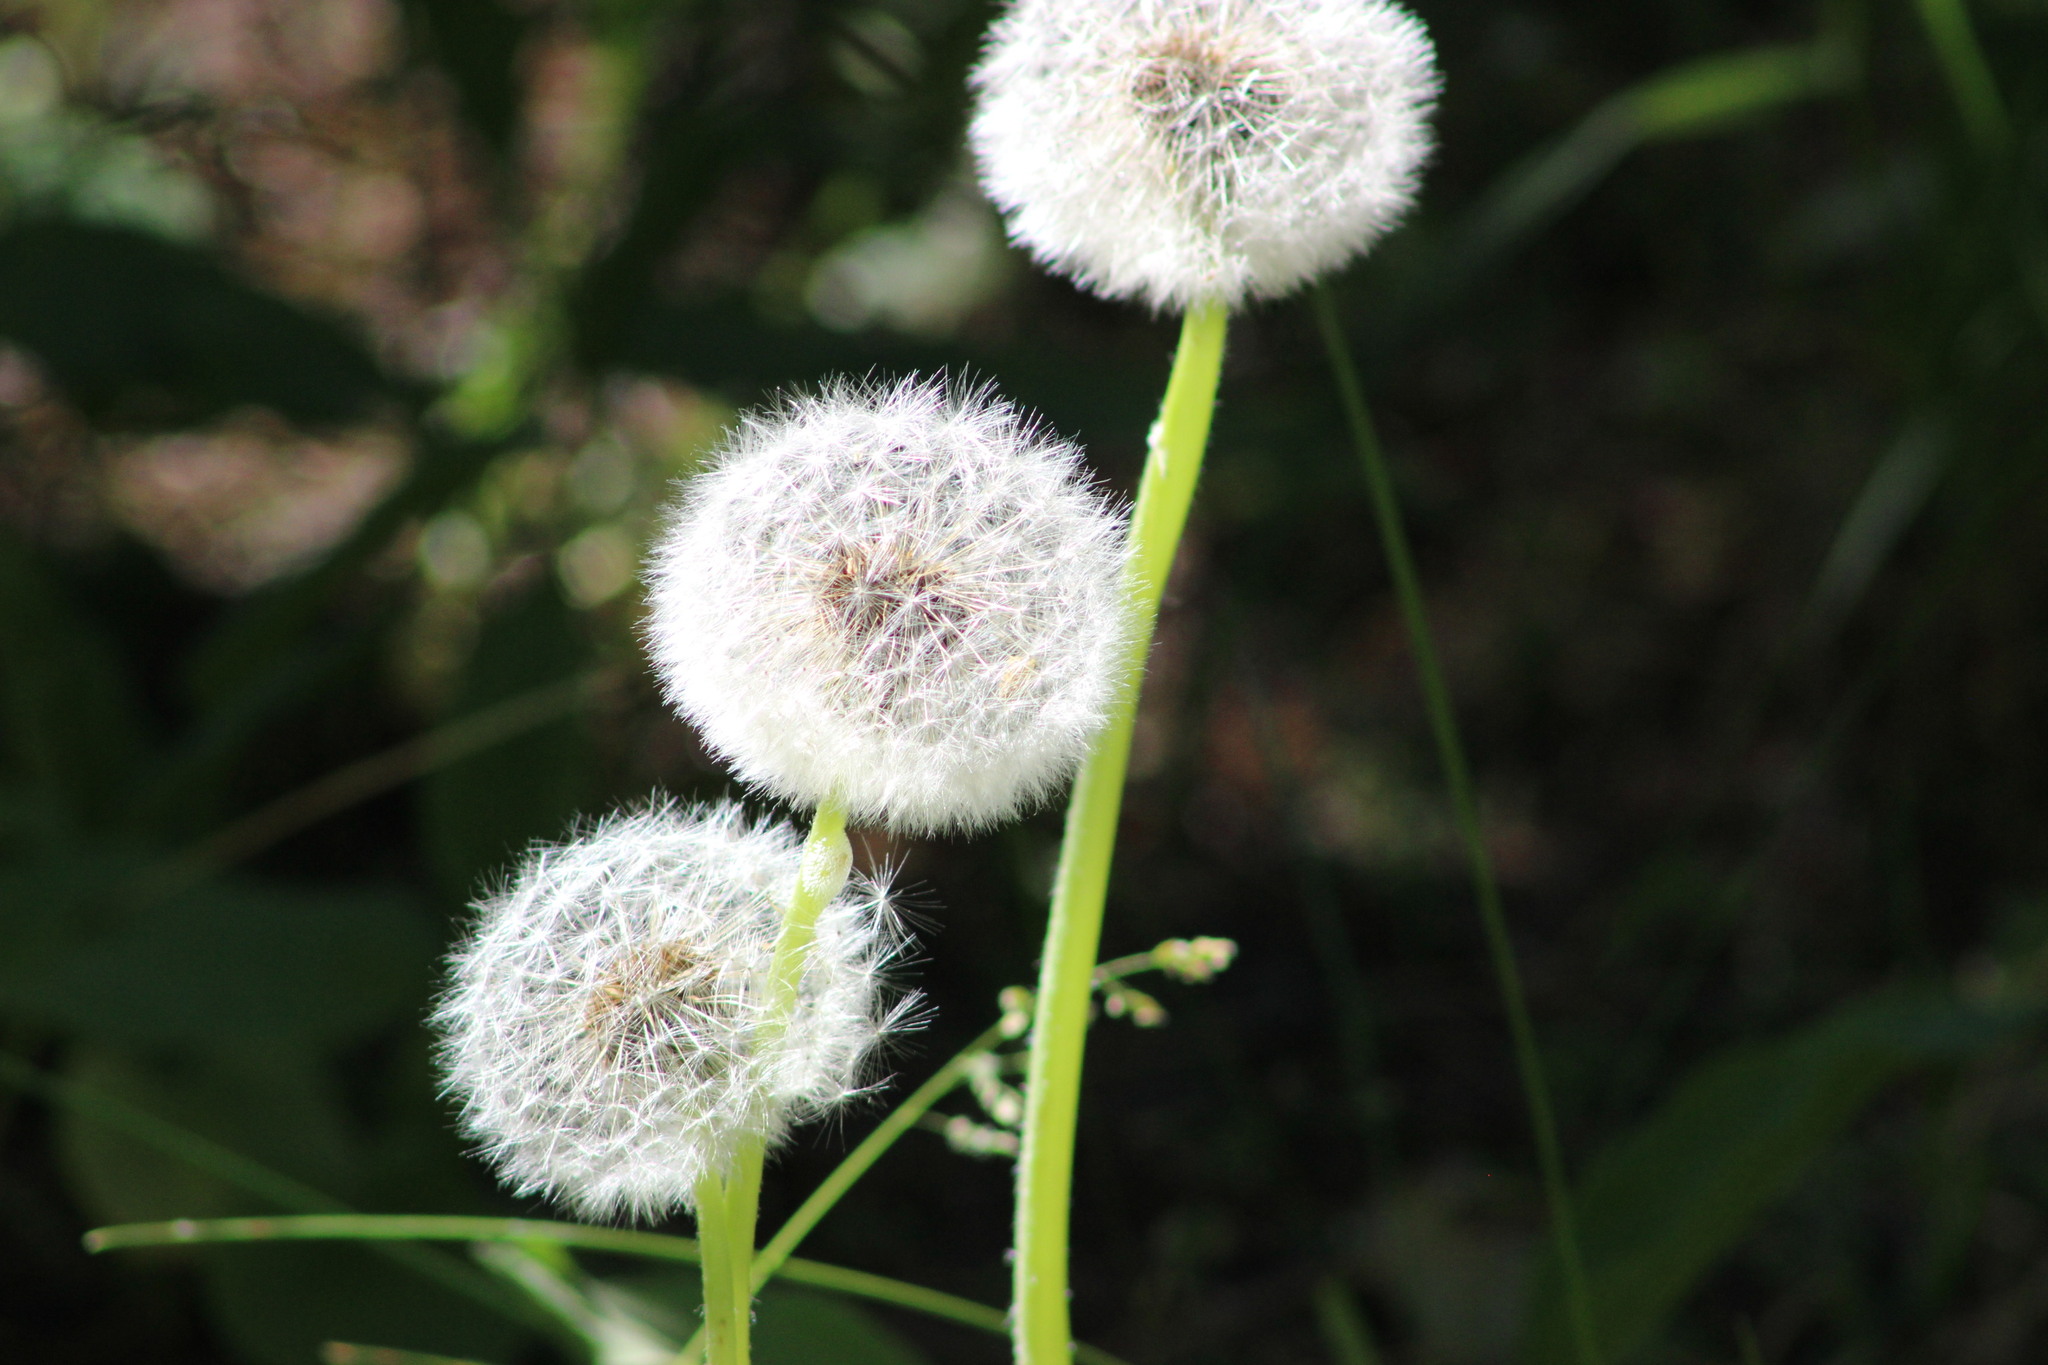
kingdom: Plantae
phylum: Tracheophyta
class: Magnoliopsida
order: Asterales
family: Asteraceae
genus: Taraxacum
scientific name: Taraxacum officinale
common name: Common dandelion
